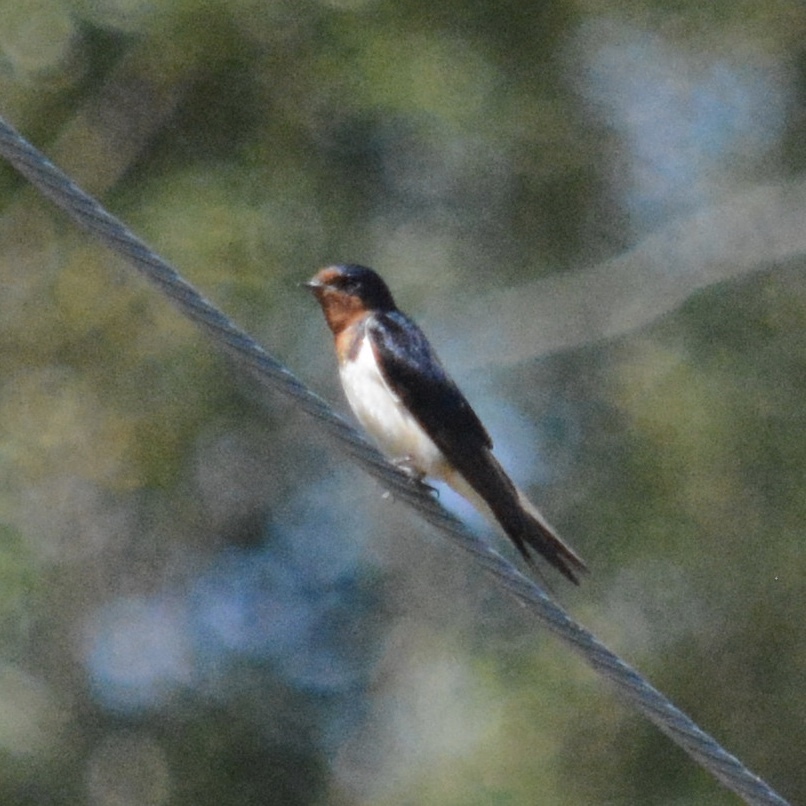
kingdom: Animalia
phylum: Chordata
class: Aves
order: Passeriformes
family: Hirundinidae
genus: Hirundo
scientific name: Hirundo rustica
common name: Barn swallow
